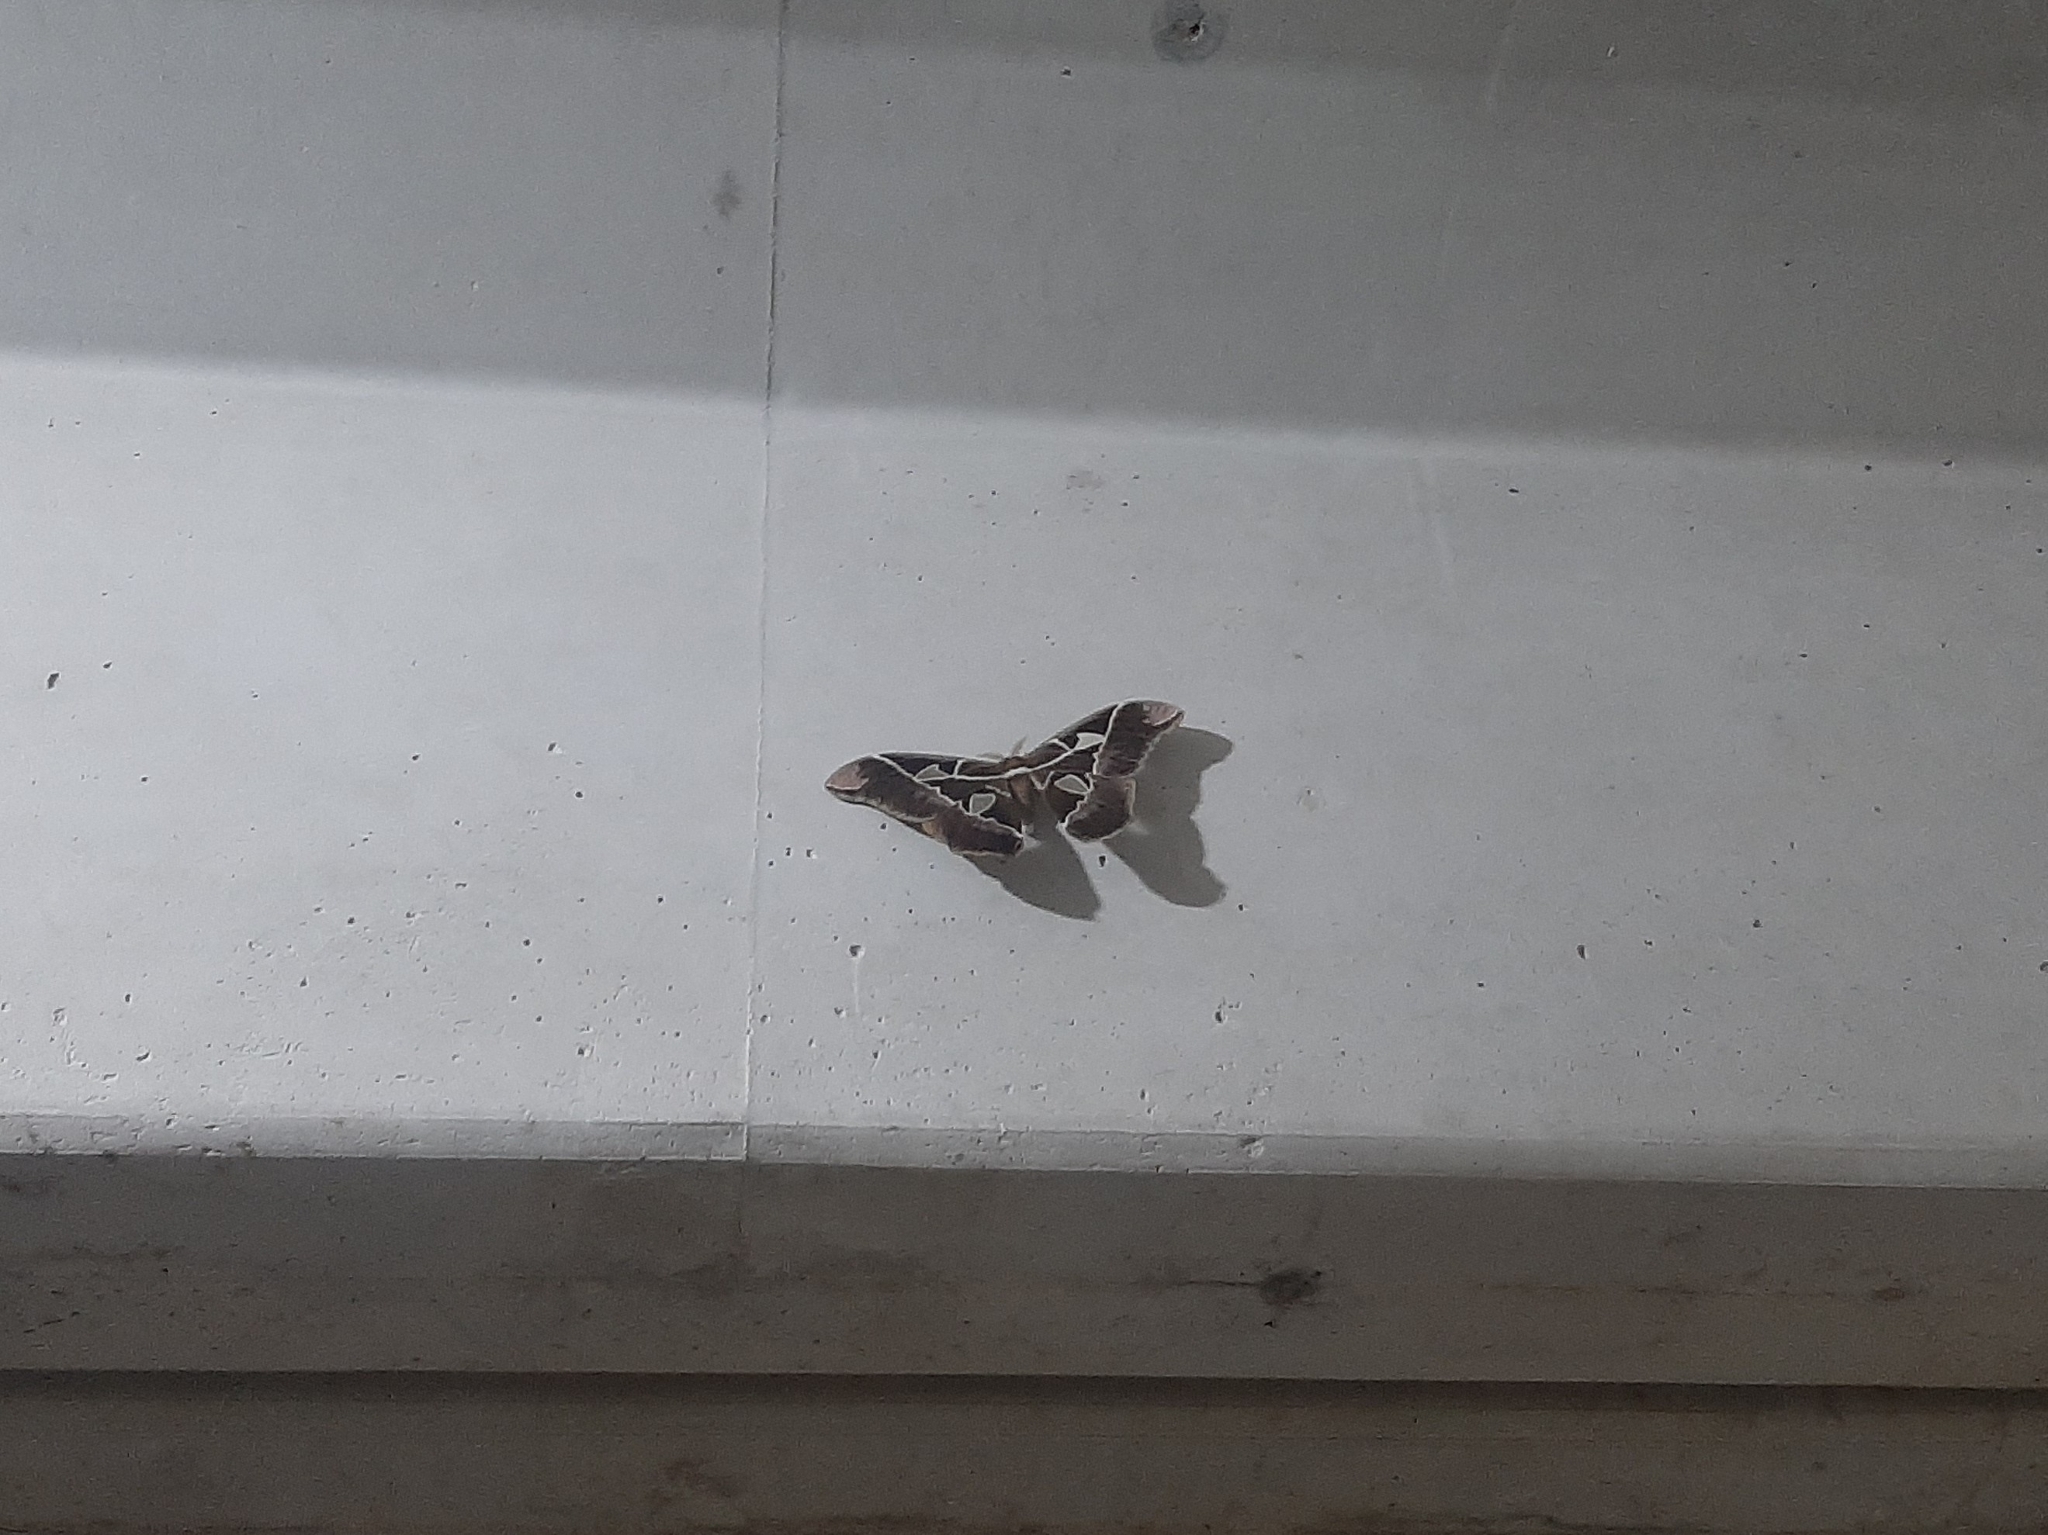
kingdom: Animalia
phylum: Arthropoda
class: Insecta
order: Lepidoptera
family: Saturniidae
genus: Rothschildia
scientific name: Rothschildia speculifer
